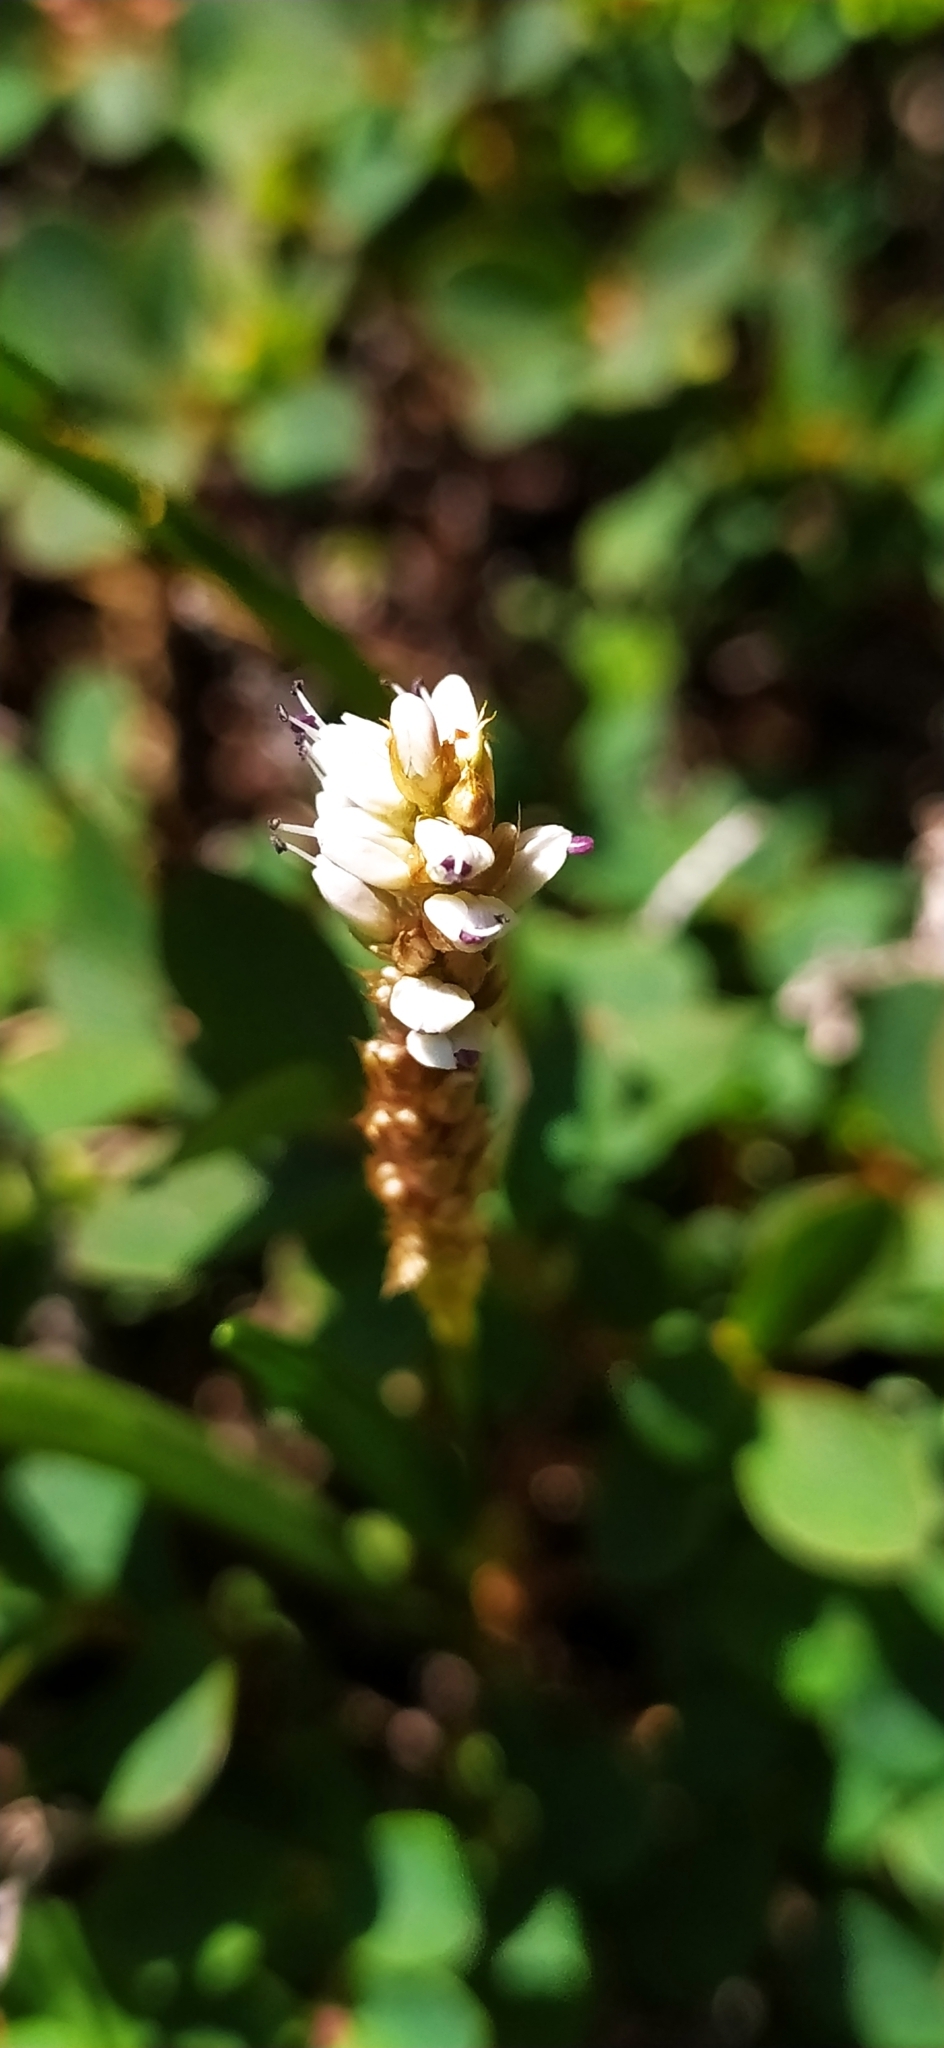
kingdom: Plantae
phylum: Tracheophyta
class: Magnoliopsida
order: Caryophyllales
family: Polygonaceae
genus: Bistorta
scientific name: Bistorta vivipara
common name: Alpine bistort
